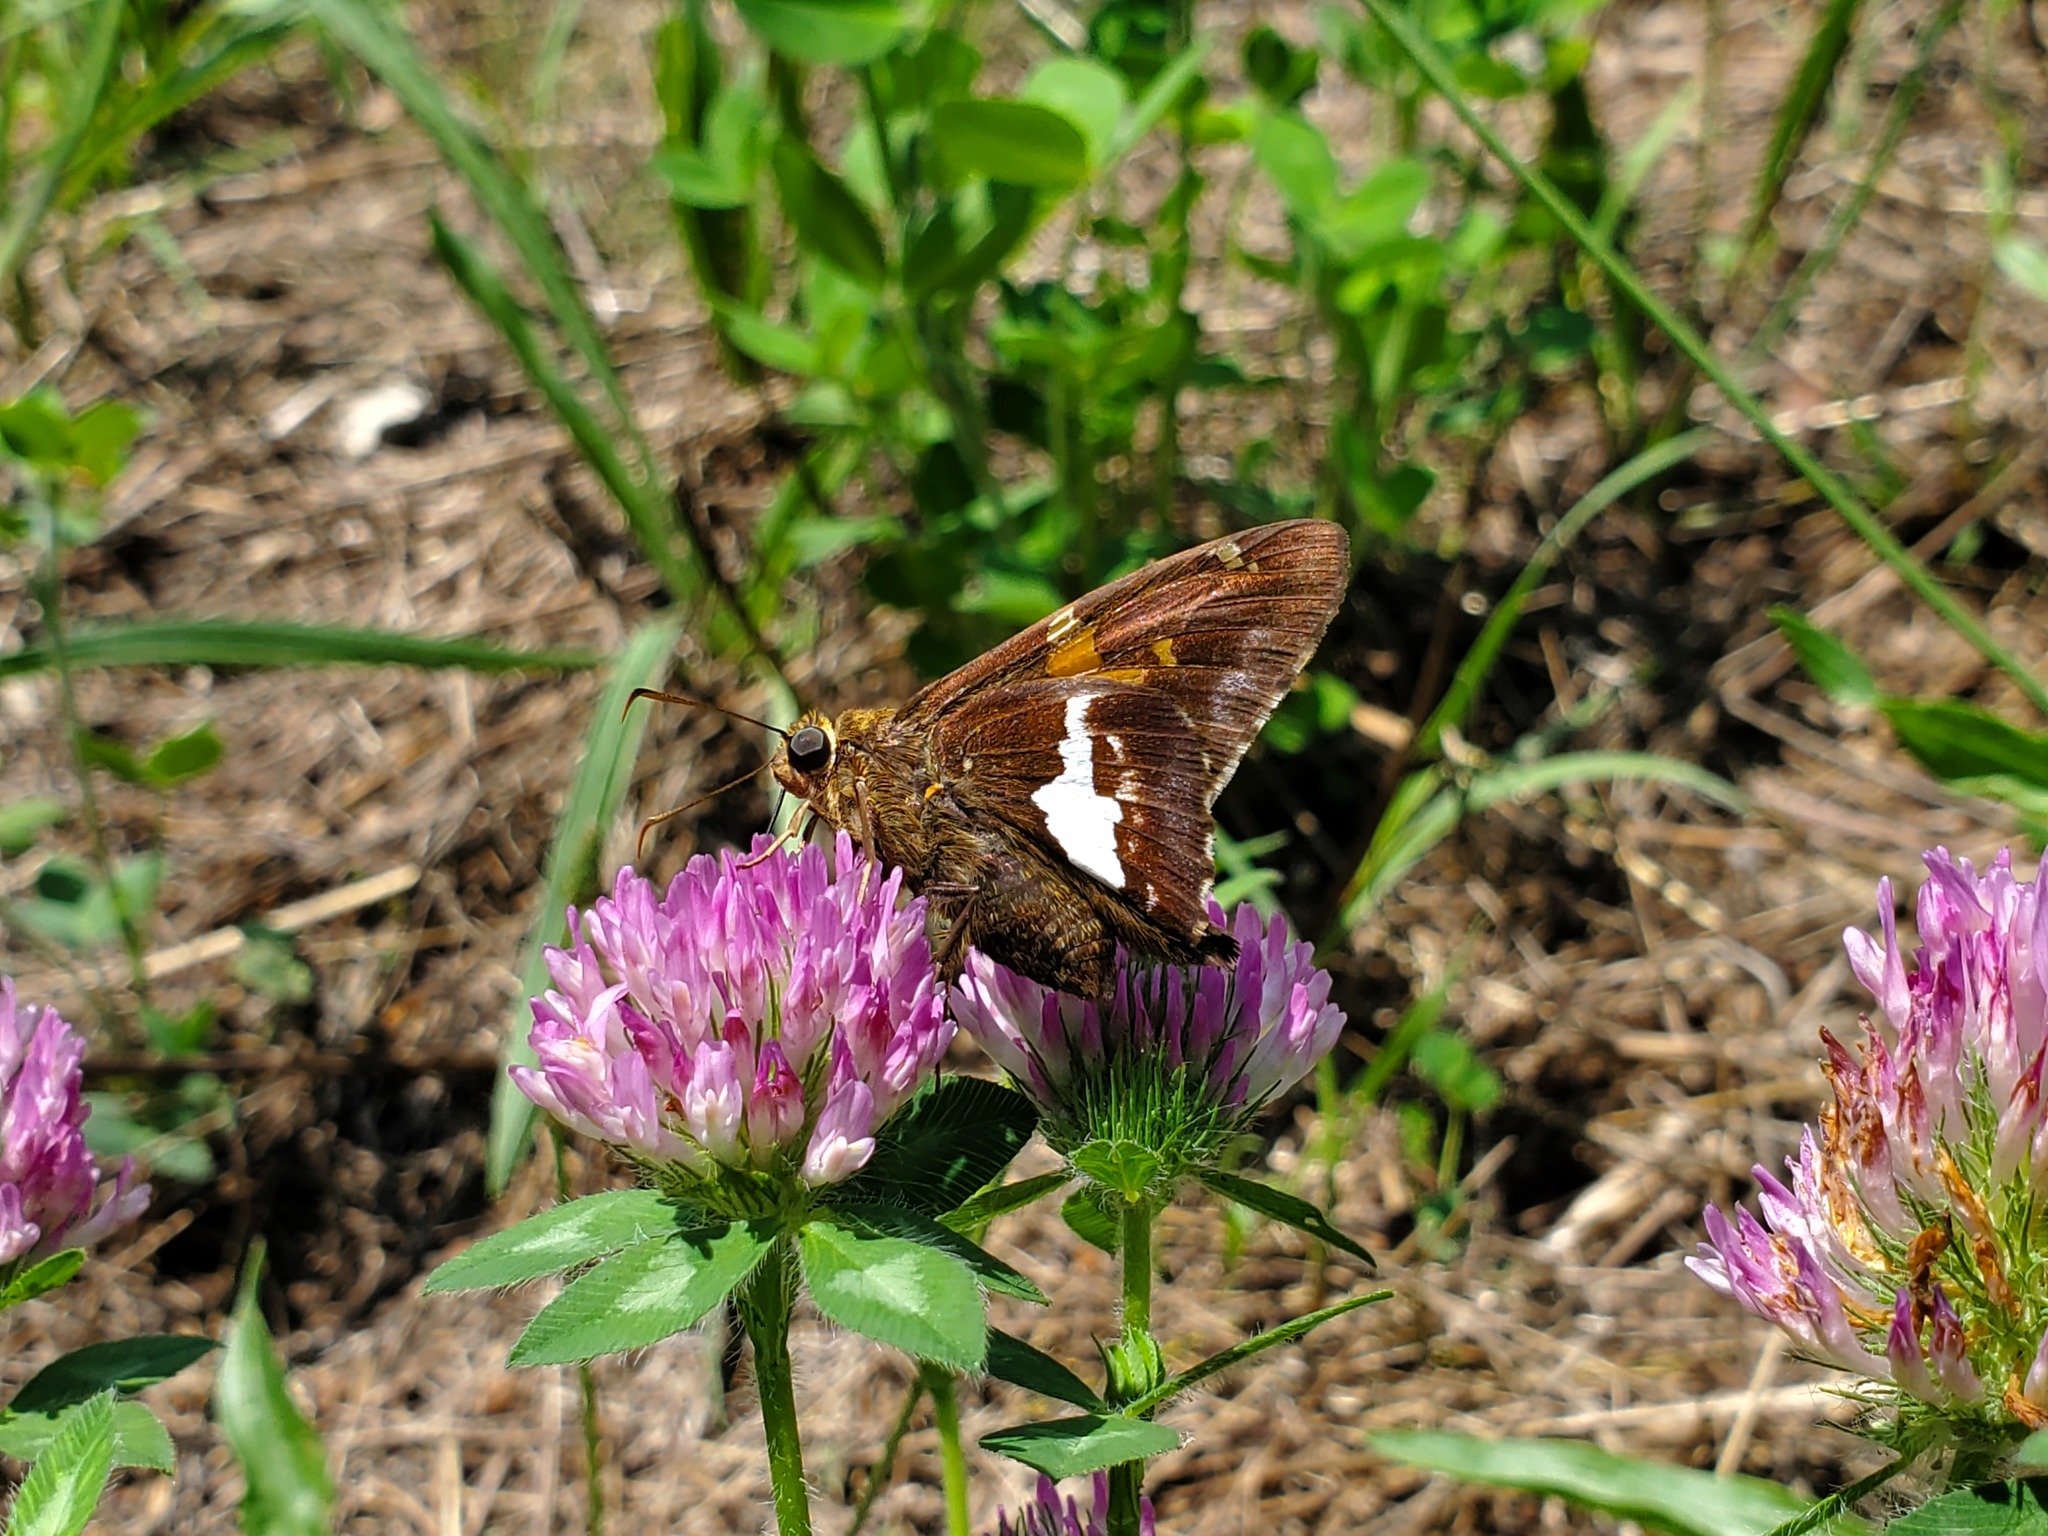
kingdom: Animalia
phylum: Arthropoda
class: Insecta
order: Lepidoptera
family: Hesperiidae
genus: Epargyreus
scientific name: Epargyreus clarus
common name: Silver-spotted skipper
